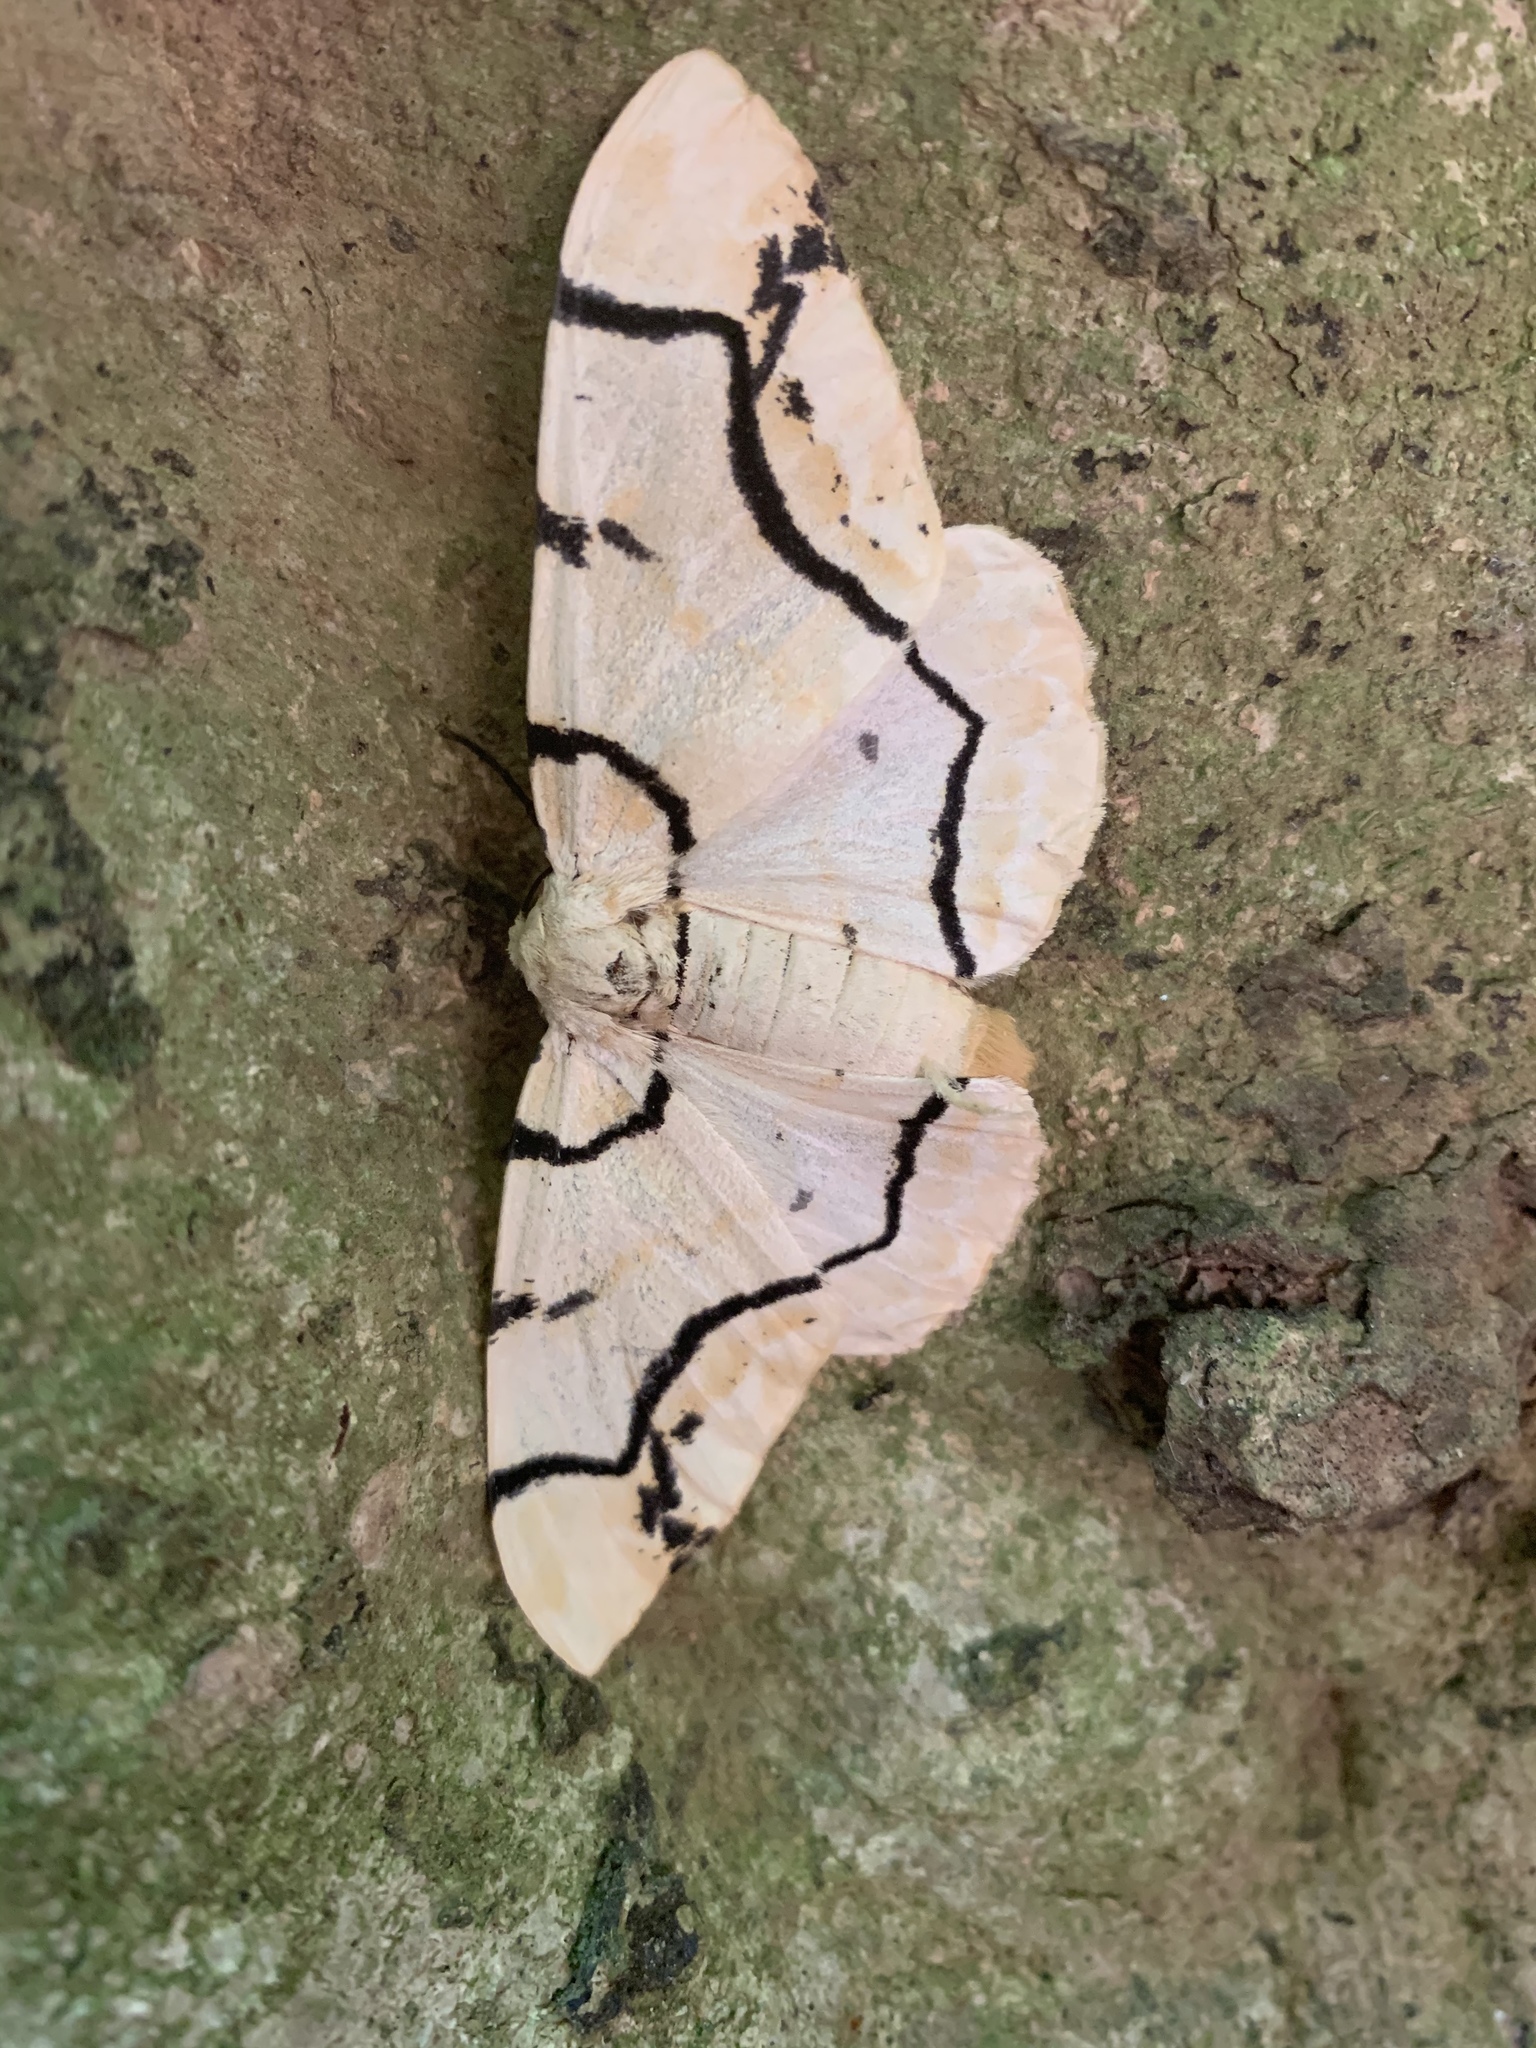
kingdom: Animalia
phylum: Arthropoda
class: Insecta
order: Lepidoptera
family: Geometridae
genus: Biston
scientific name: Biston perclara
